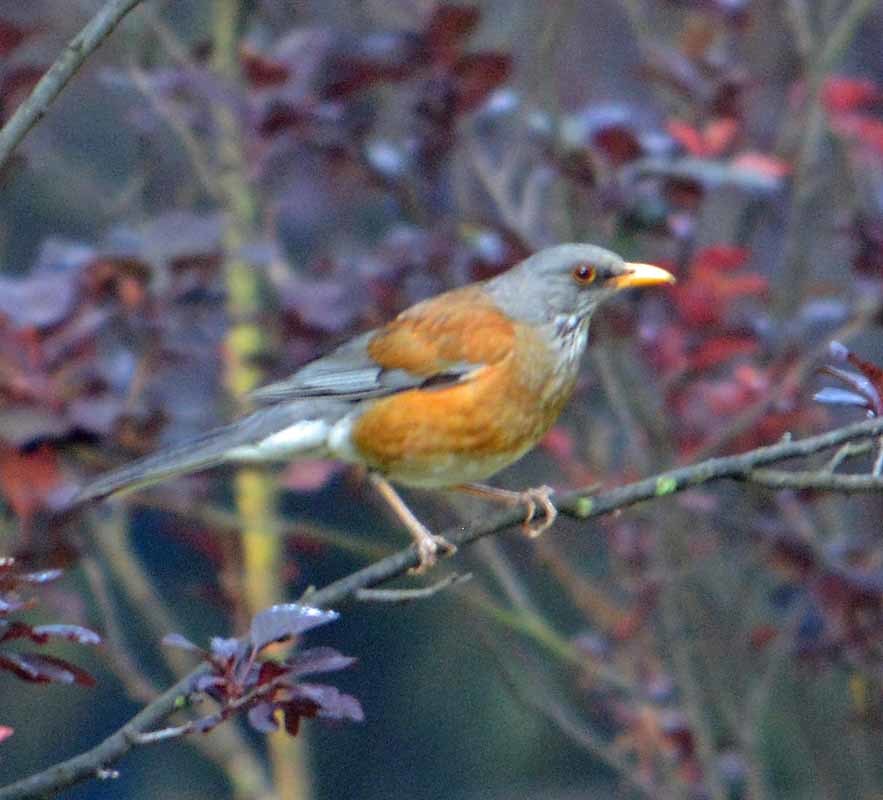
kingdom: Animalia
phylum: Chordata
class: Aves
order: Passeriformes
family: Turdidae
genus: Turdus
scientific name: Turdus rufopalliatus
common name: Rufous-backed robin
